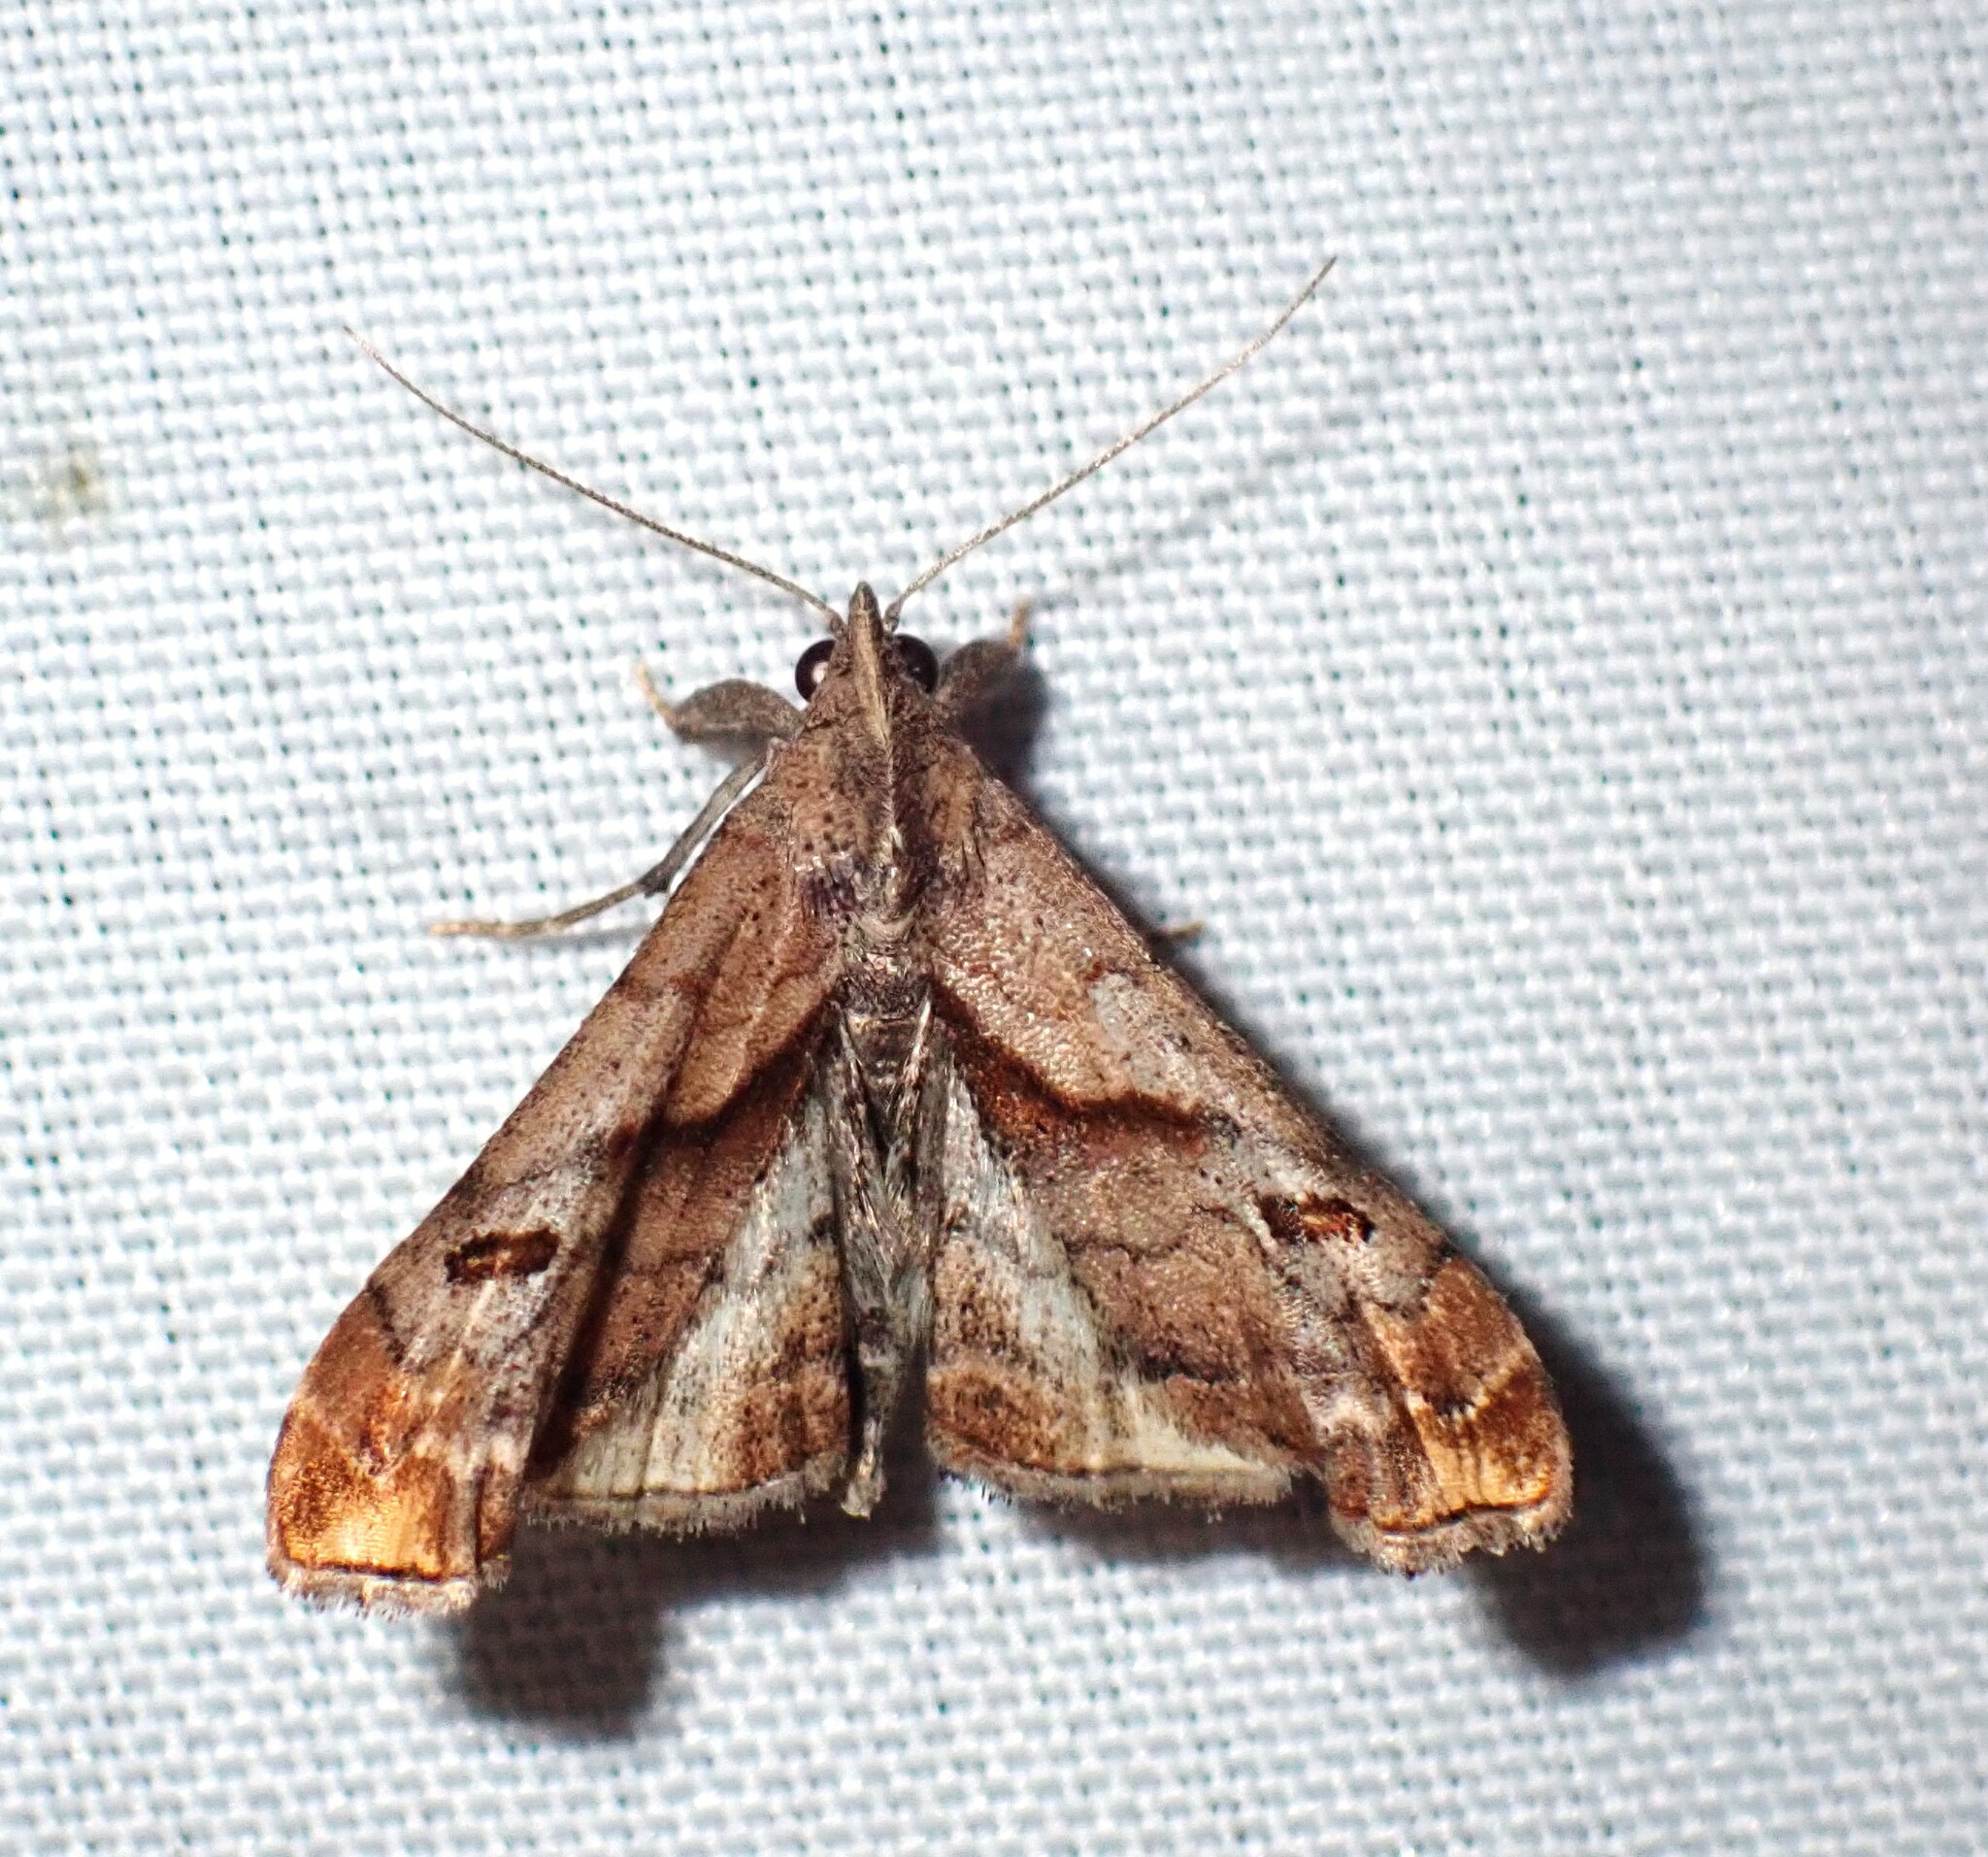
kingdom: Animalia
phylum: Arthropoda
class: Insecta
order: Lepidoptera
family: Erebidae
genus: Palthis
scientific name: Palthis angulalis
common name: Dark-spotted palthis moth
